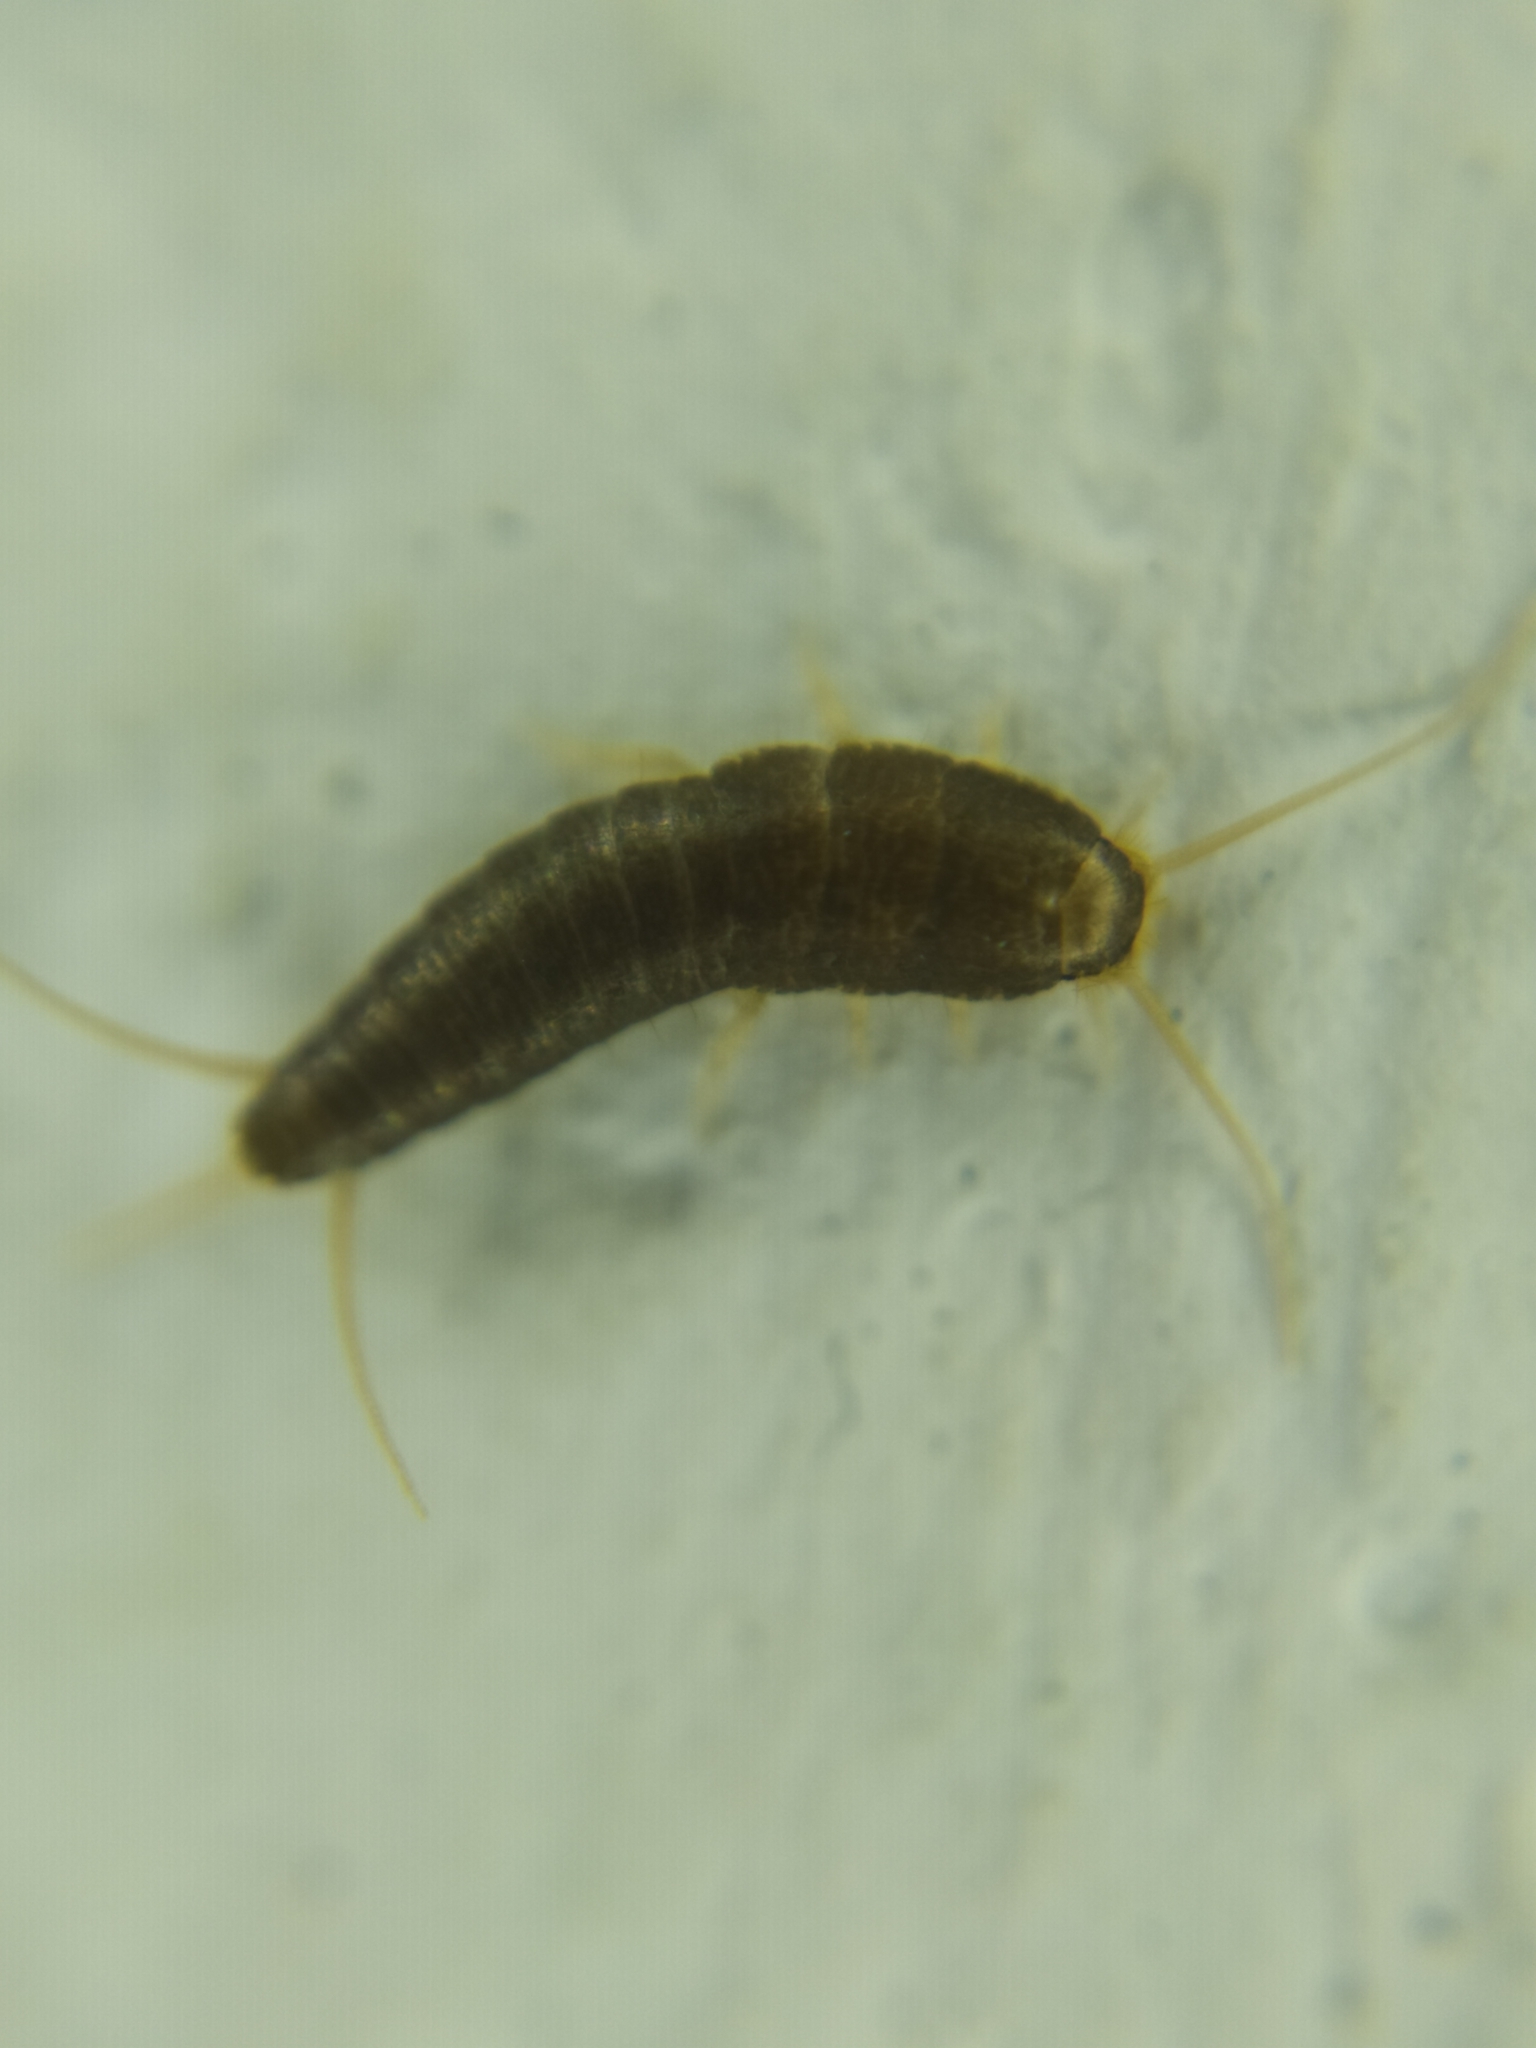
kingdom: Animalia
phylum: Arthropoda
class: Insecta
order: Zygentoma
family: Lepismatidae
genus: Lepisma
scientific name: Lepisma saccharinum
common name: Silverfish
